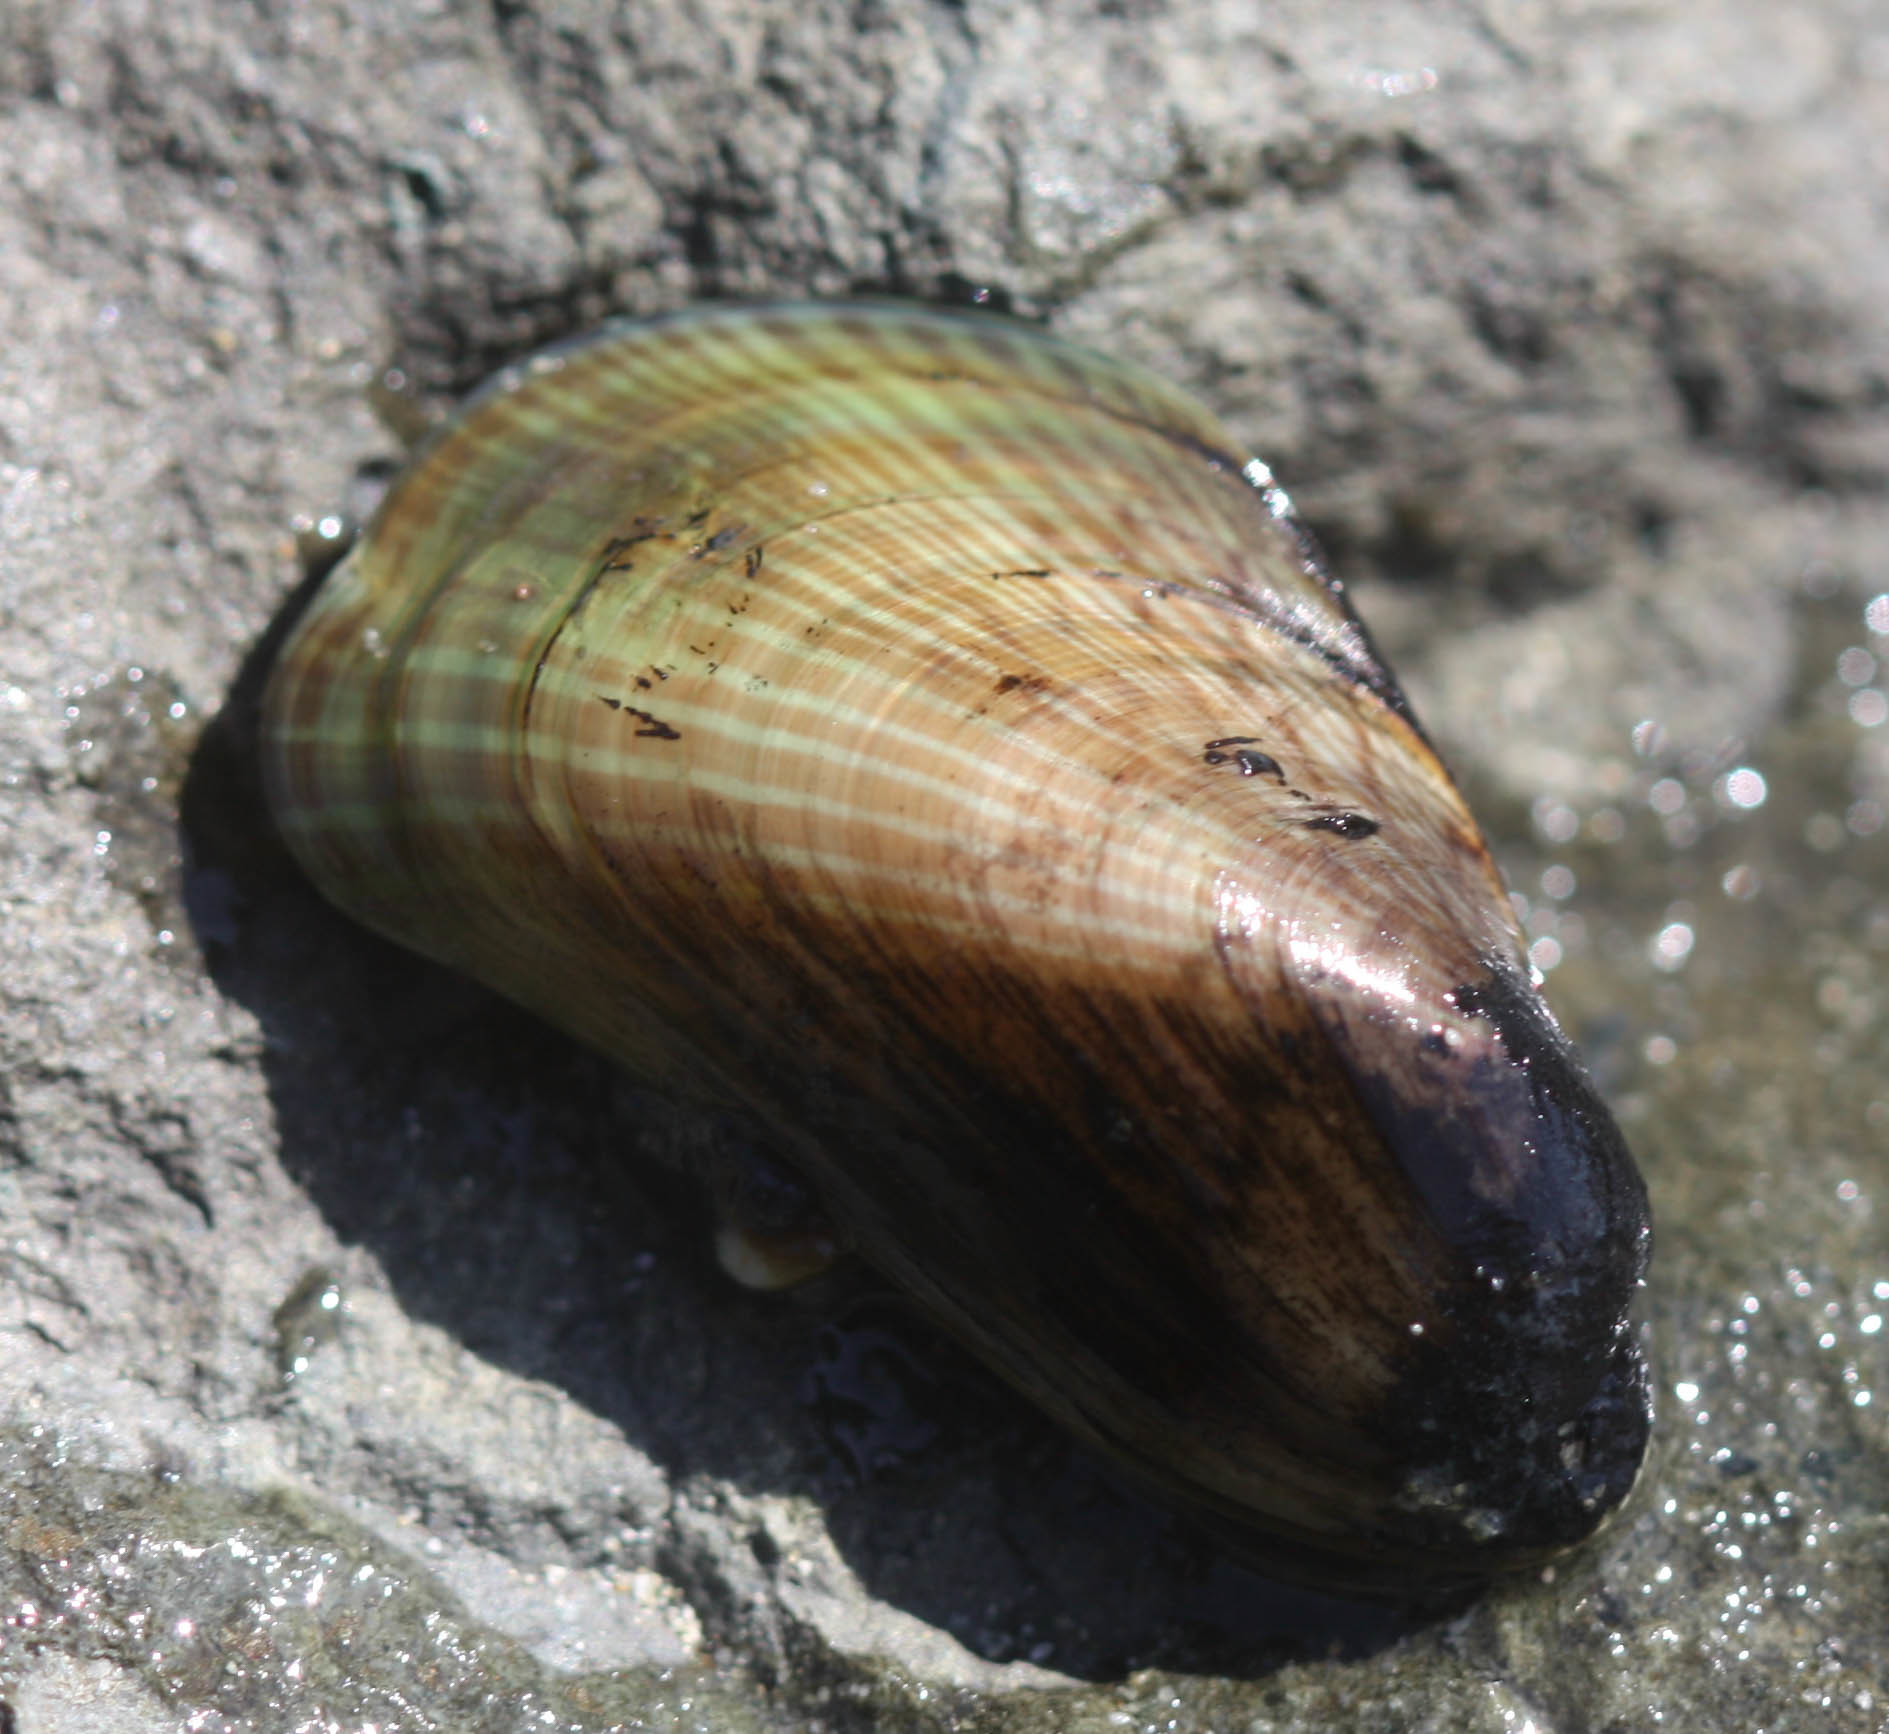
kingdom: Animalia
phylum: Mollusca
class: Bivalvia
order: Mytilida
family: Mytilidae
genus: Arcuatula
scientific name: Arcuatula senhousia
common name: Asian mussel
